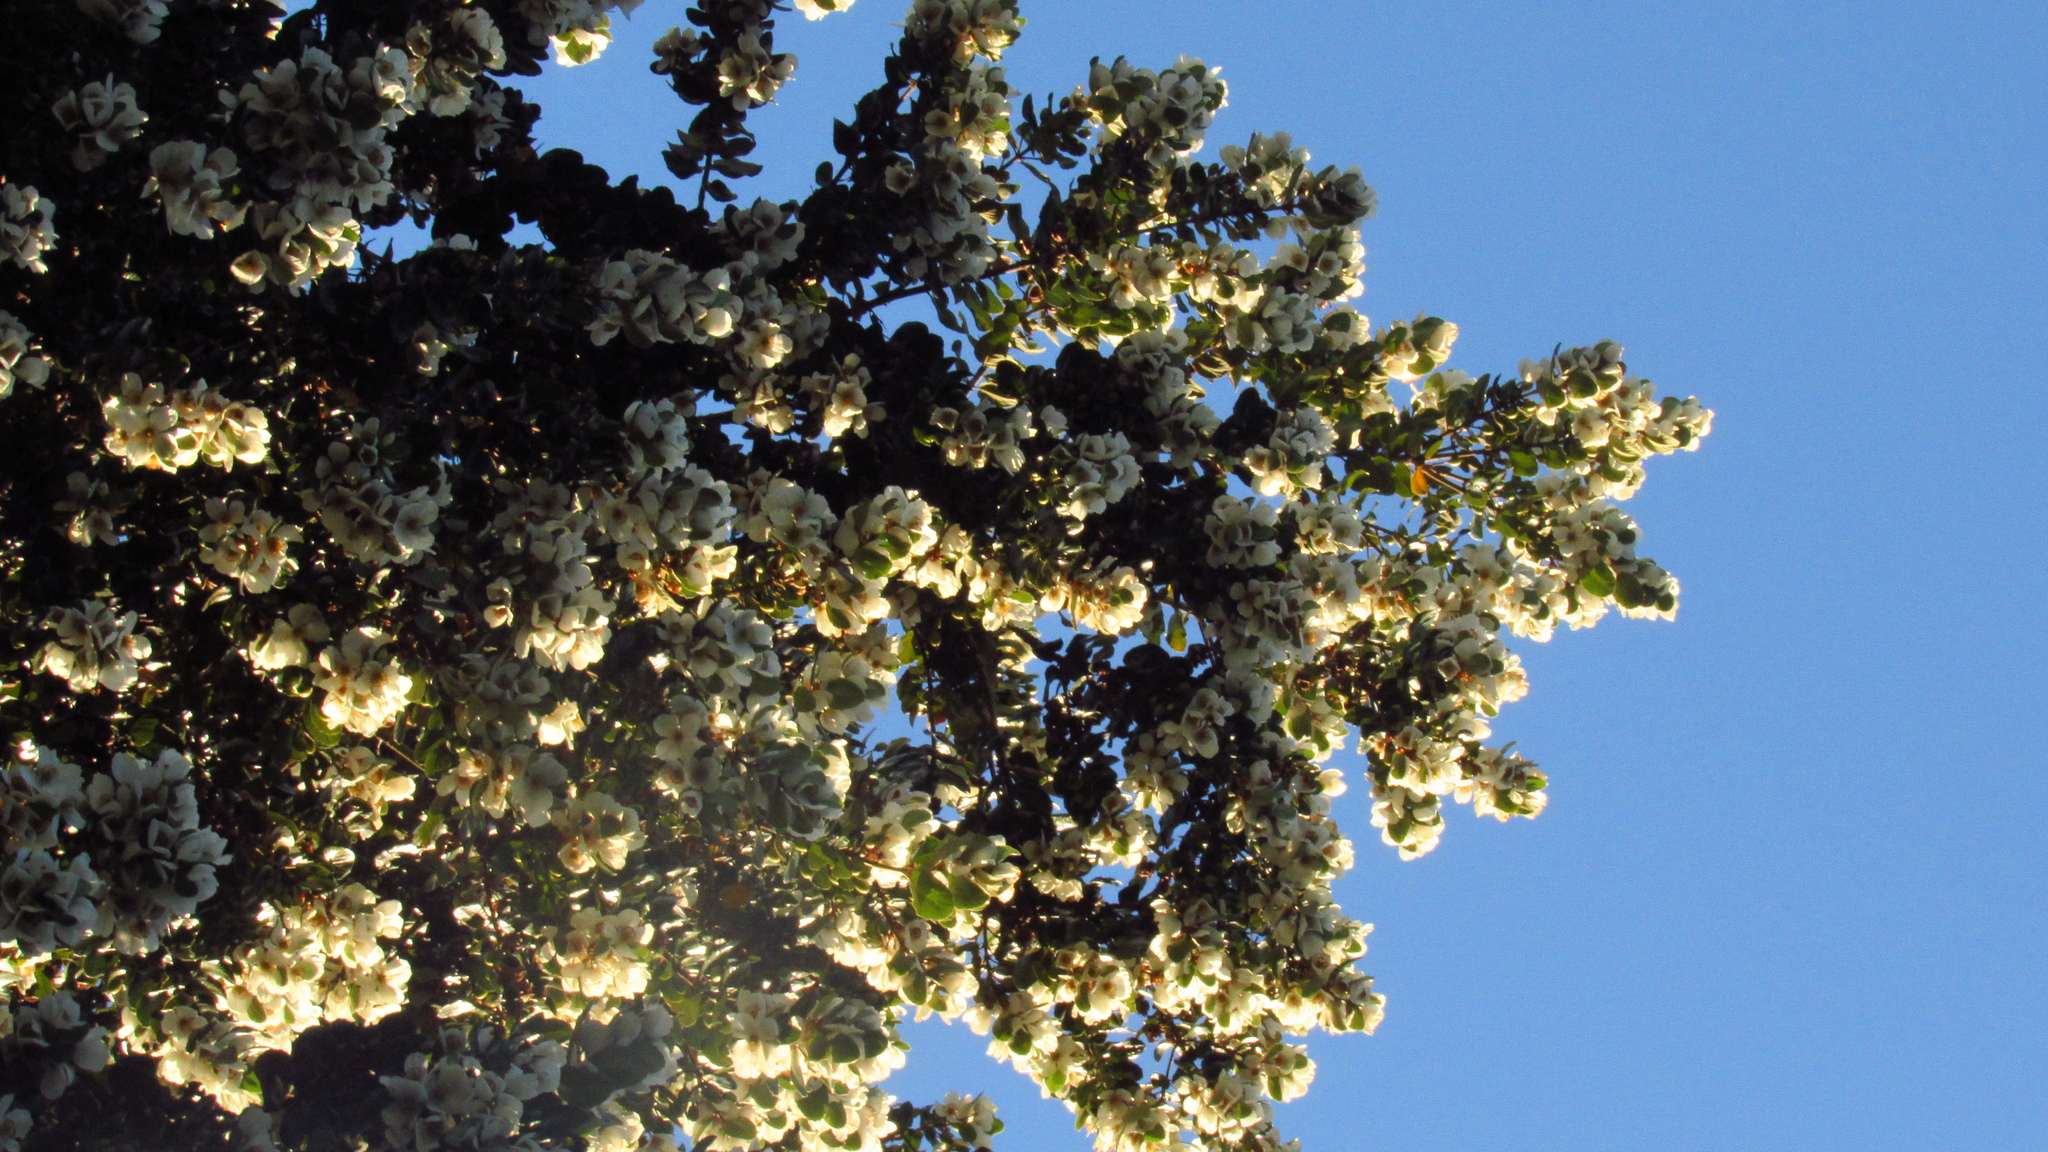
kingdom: Plantae
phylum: Tracheophyta
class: Magnoliopsida
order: Oxalidales
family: Cunoniaceae
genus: Eucryphia
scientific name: Eucryphia cordifolia
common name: Ulmo
